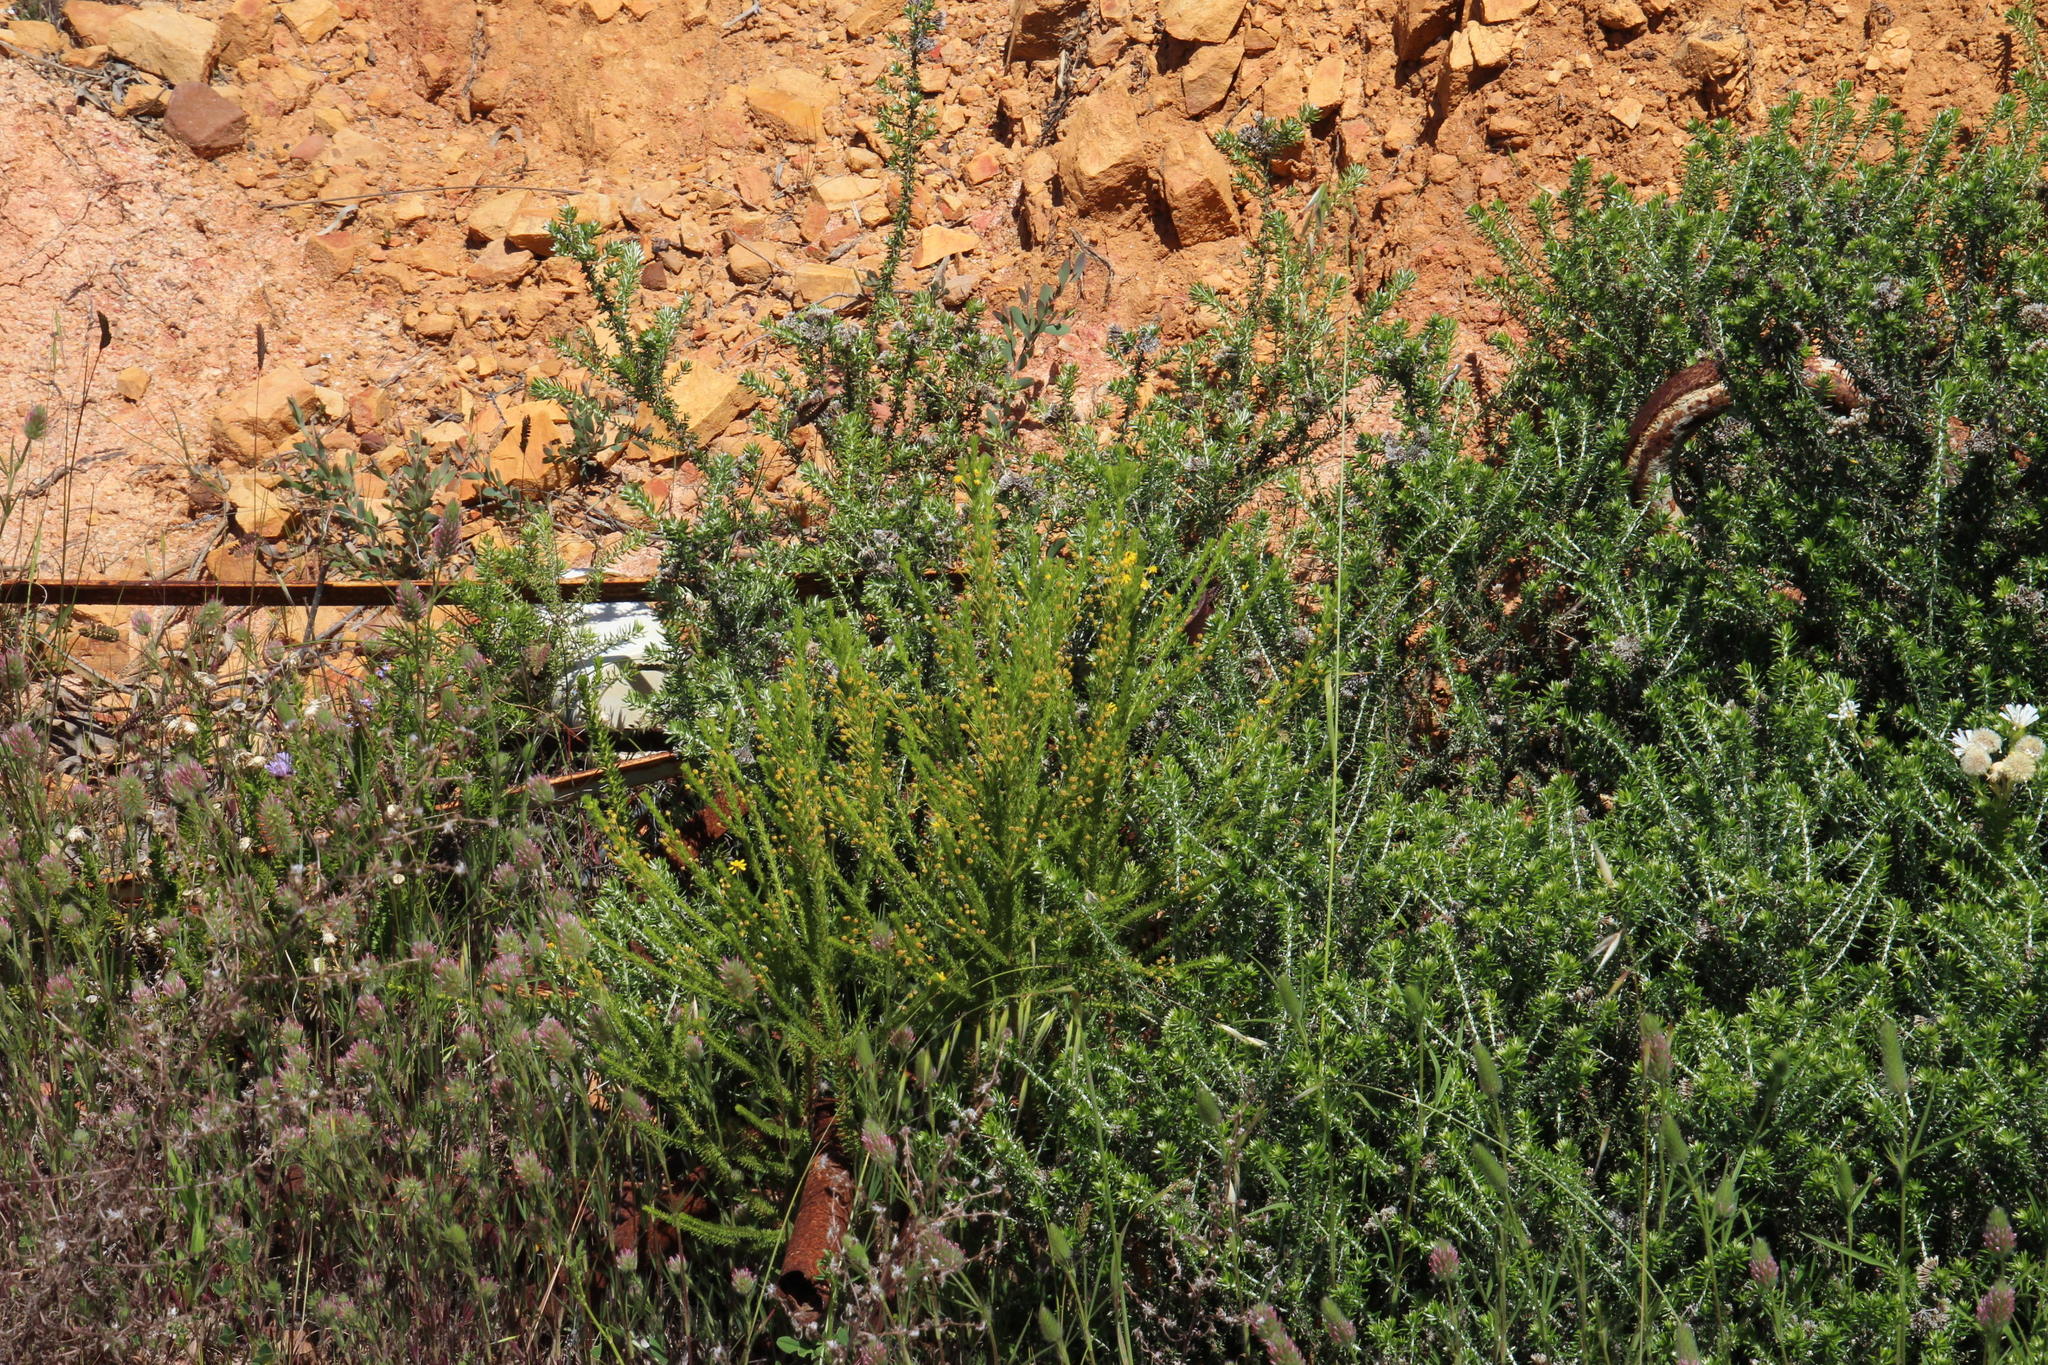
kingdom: Plantae
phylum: Tracheophyta
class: Magnoliopsida
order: Asterales
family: Asteraceae
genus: Euryops
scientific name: Euryops virgineus
